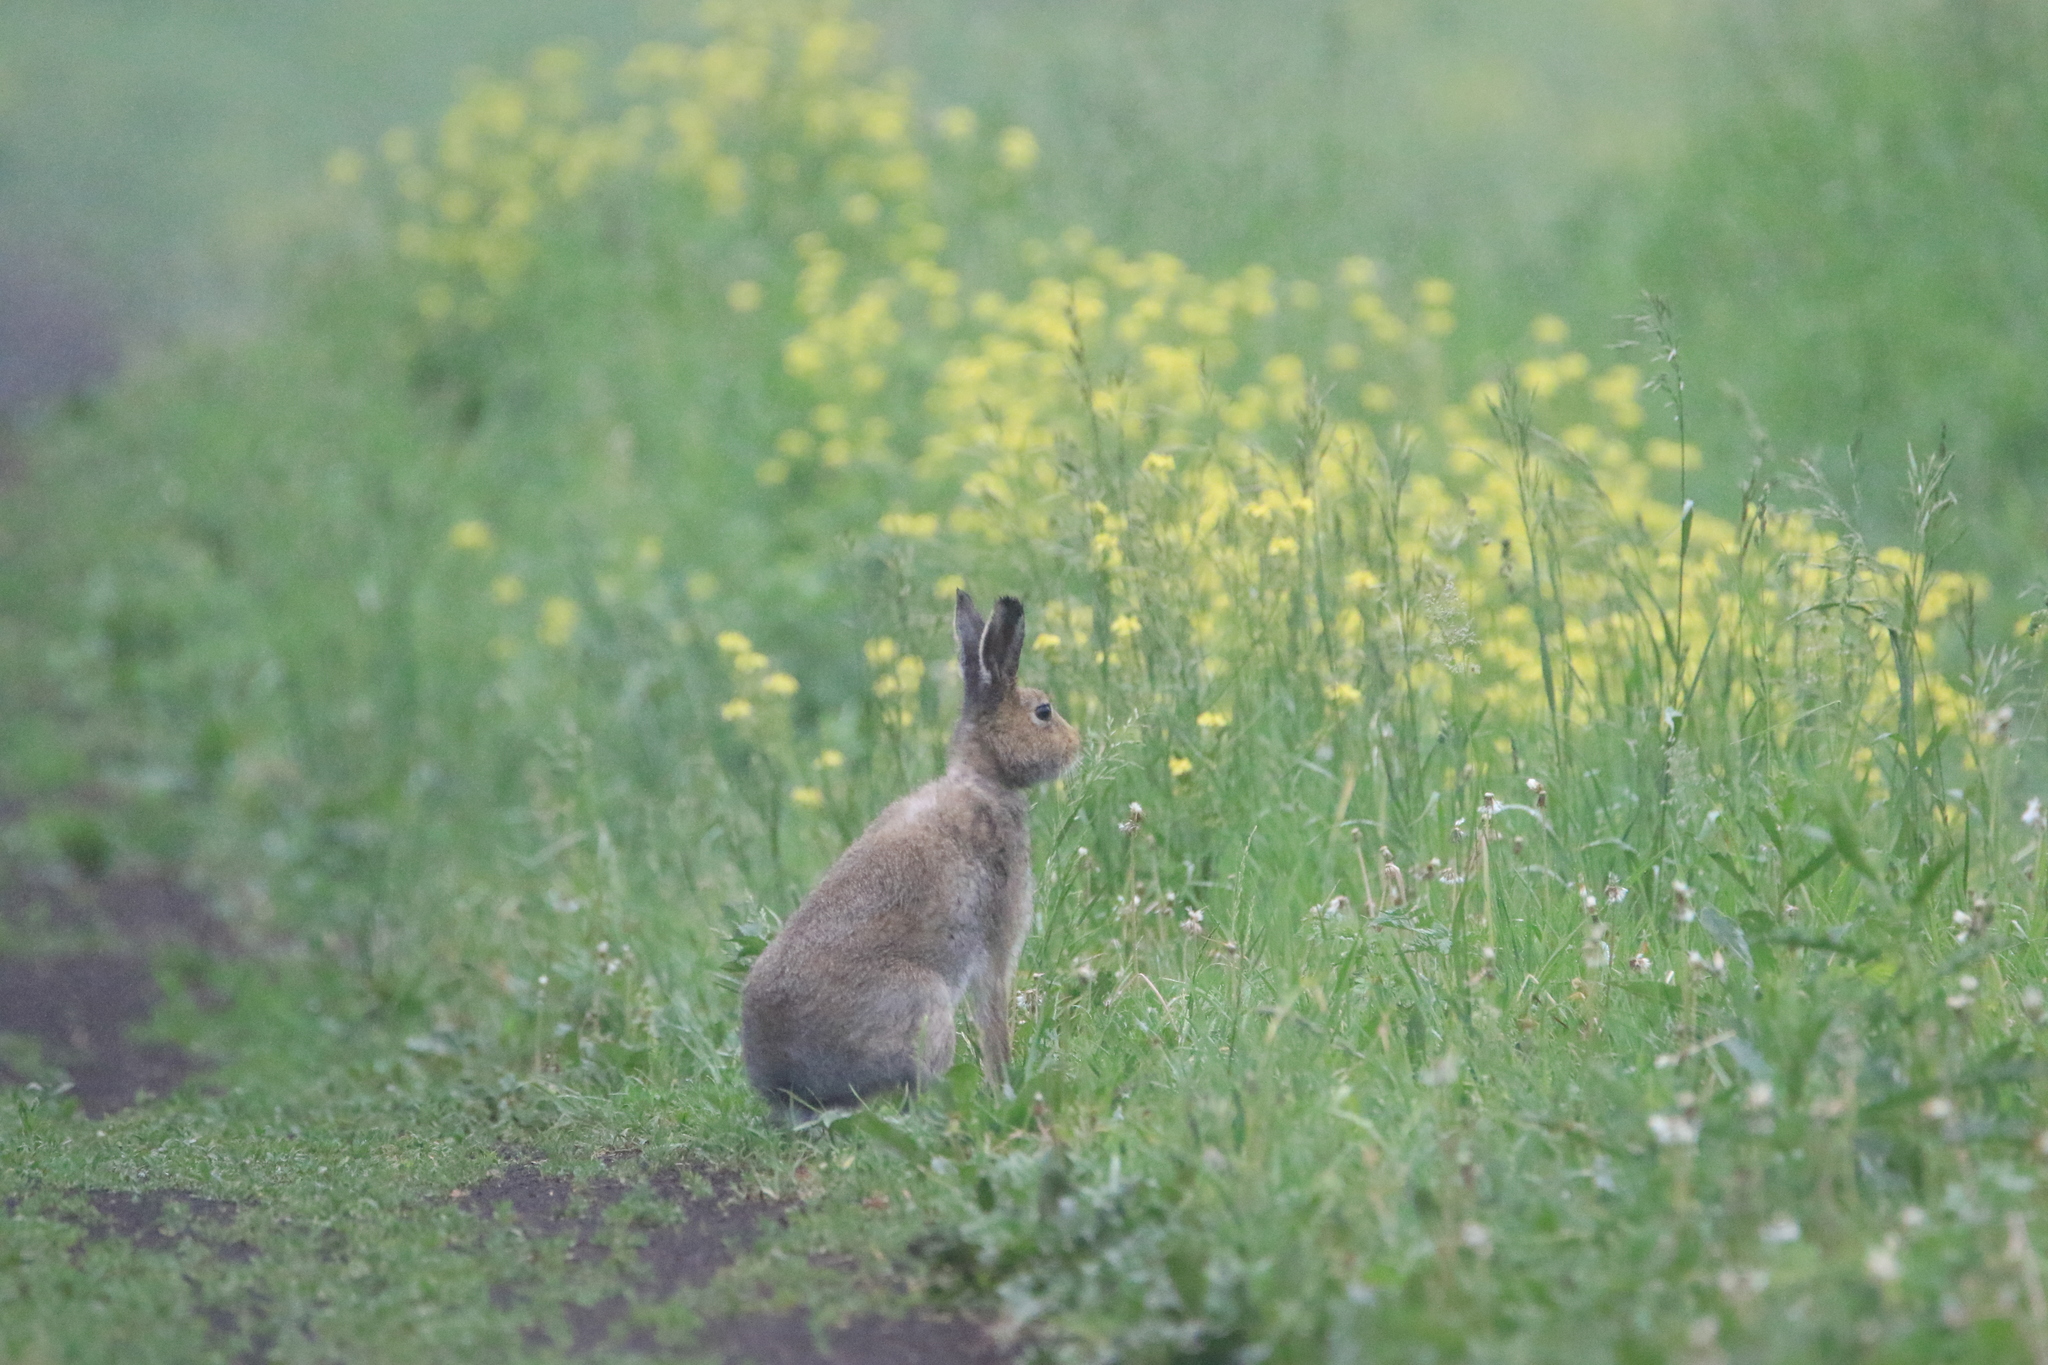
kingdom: Animalia
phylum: Chordata
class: Mammalia
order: Lagomorpha
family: Leporidae
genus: Lepus
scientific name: Lepus timidus
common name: Mountain hare
